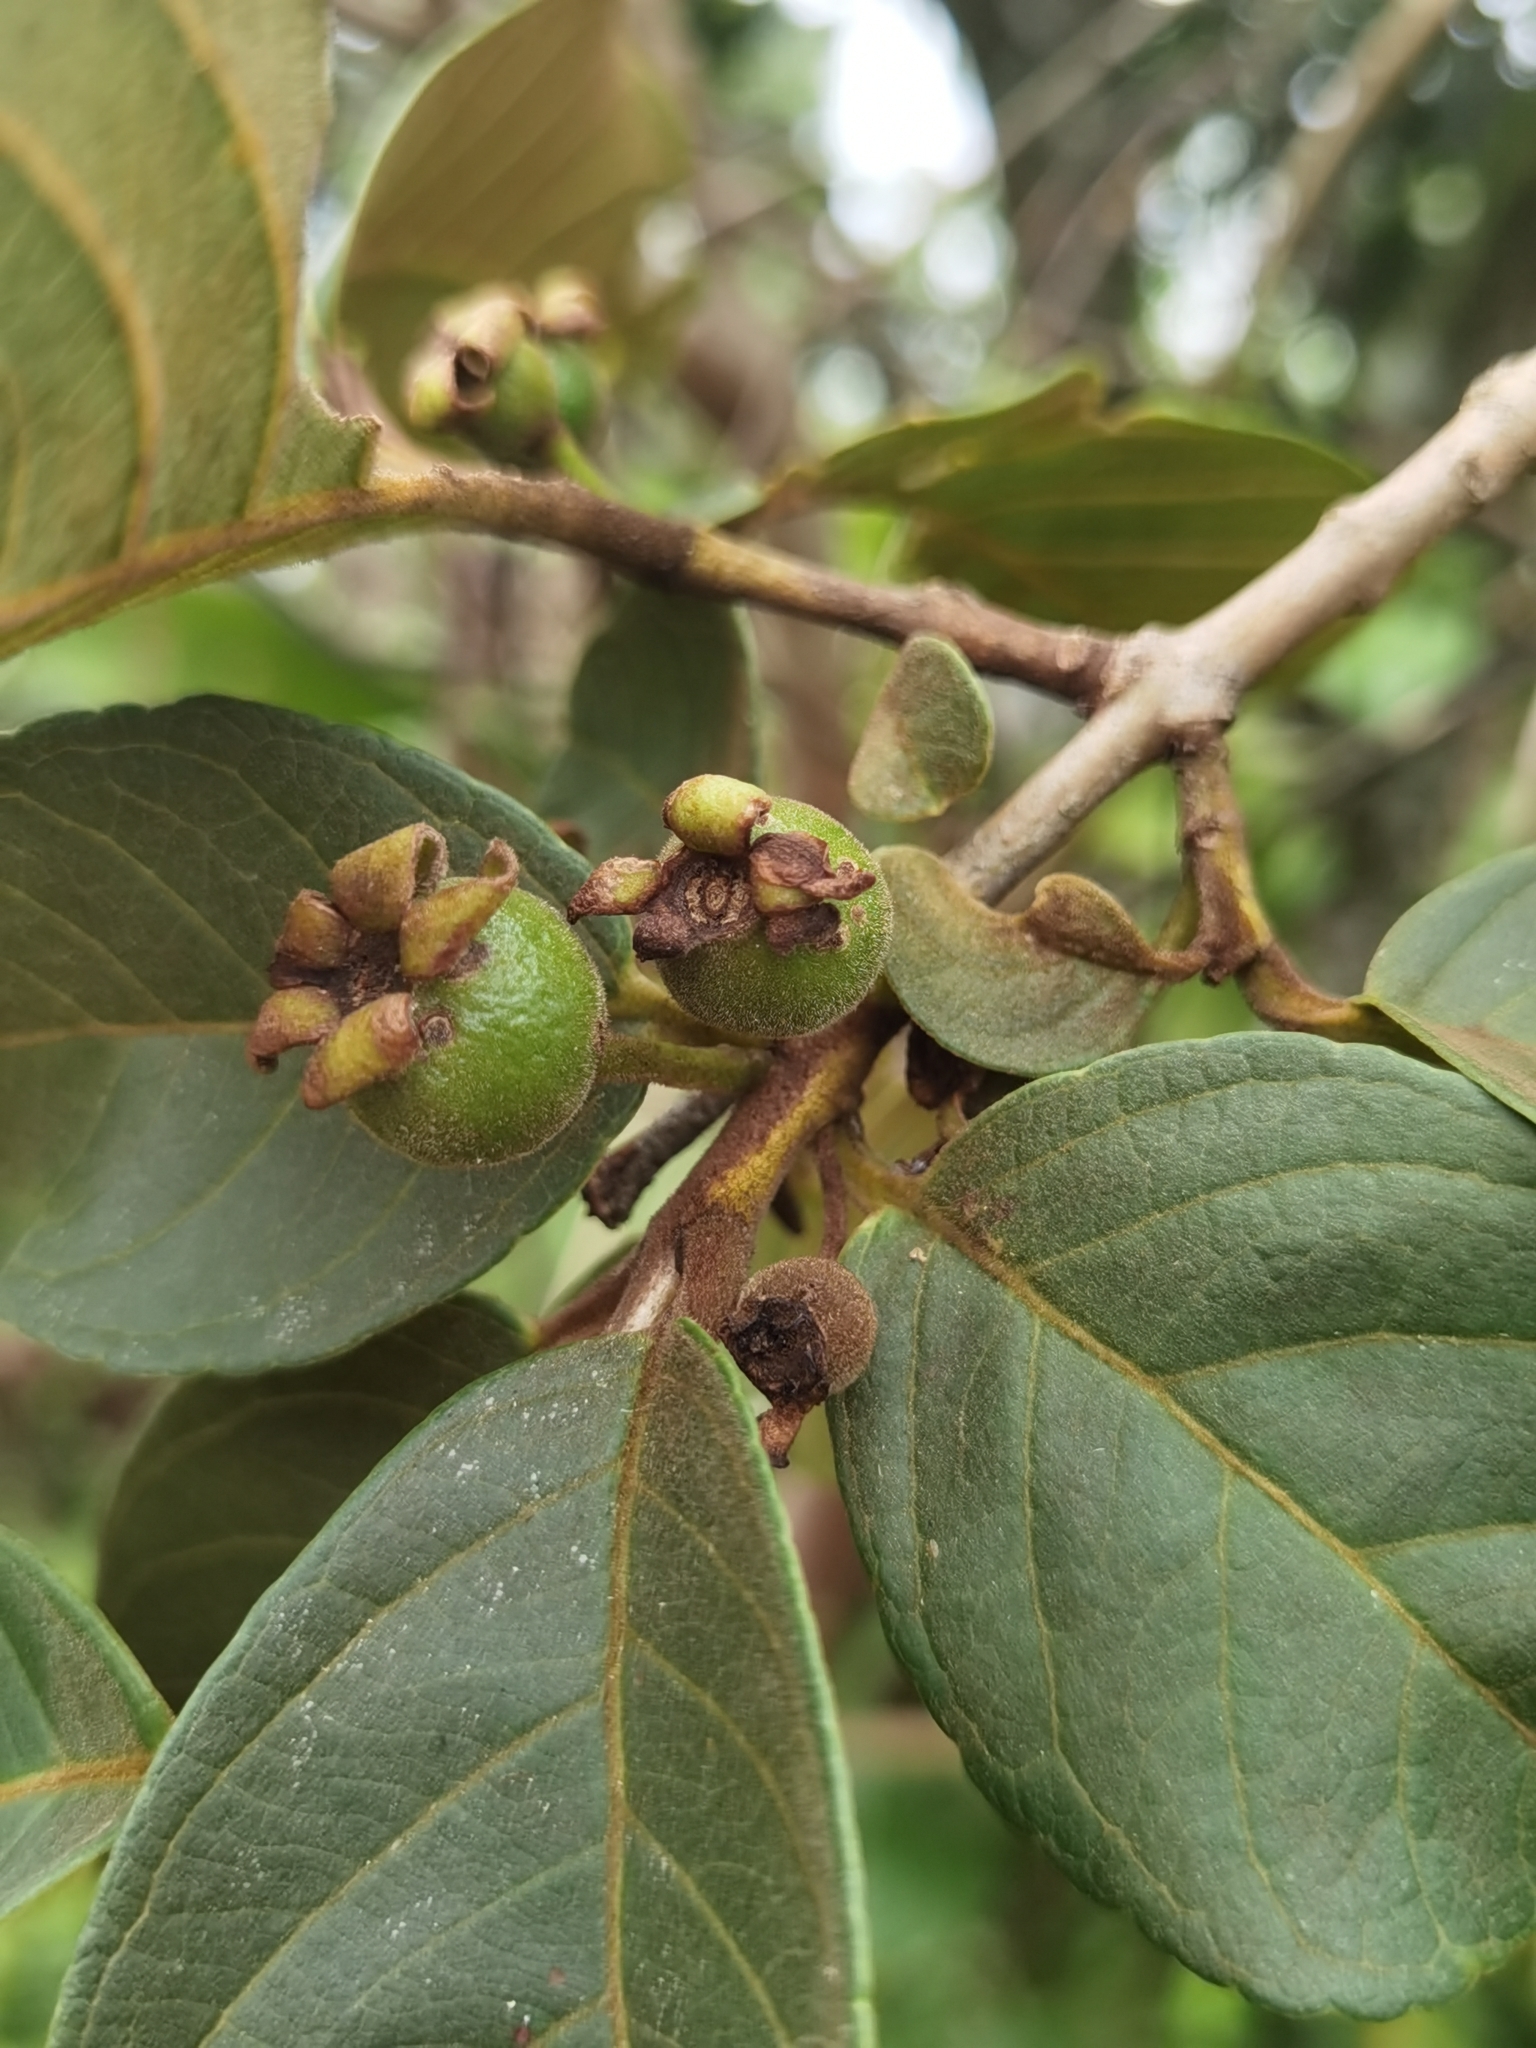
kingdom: Plantae
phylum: Tracheophyta
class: Magnoliopsida
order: Myrtales
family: Myrtaceae
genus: Psidium
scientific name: Psidium guineense
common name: Brazilian guava
